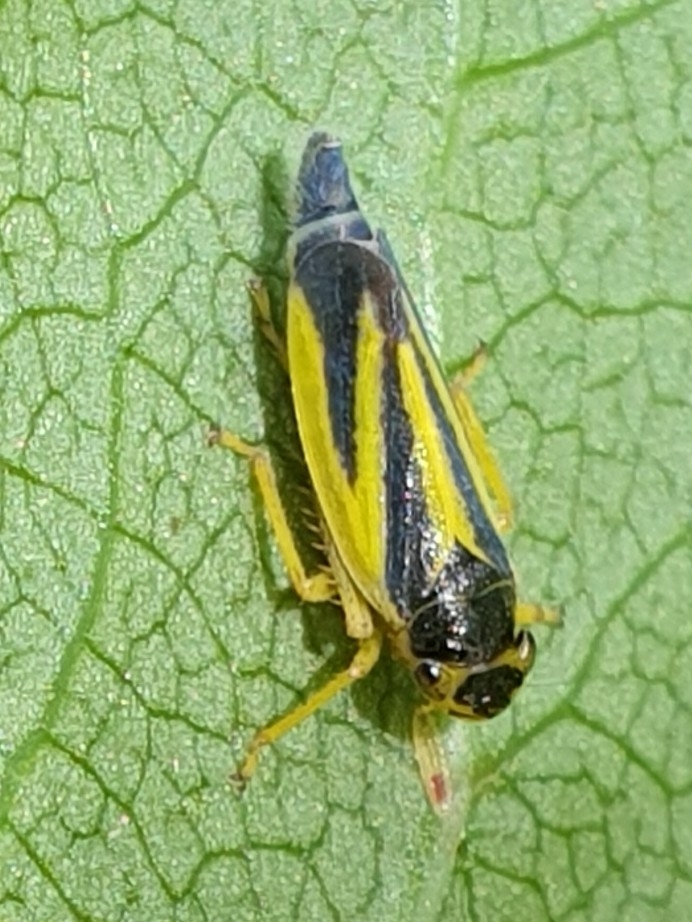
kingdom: Animalia
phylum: Arthropoda
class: Insecta
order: Hemiptera
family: Cicadellidae
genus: Evacanthus
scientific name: Evacanthus interruptus
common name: Leafhopper
